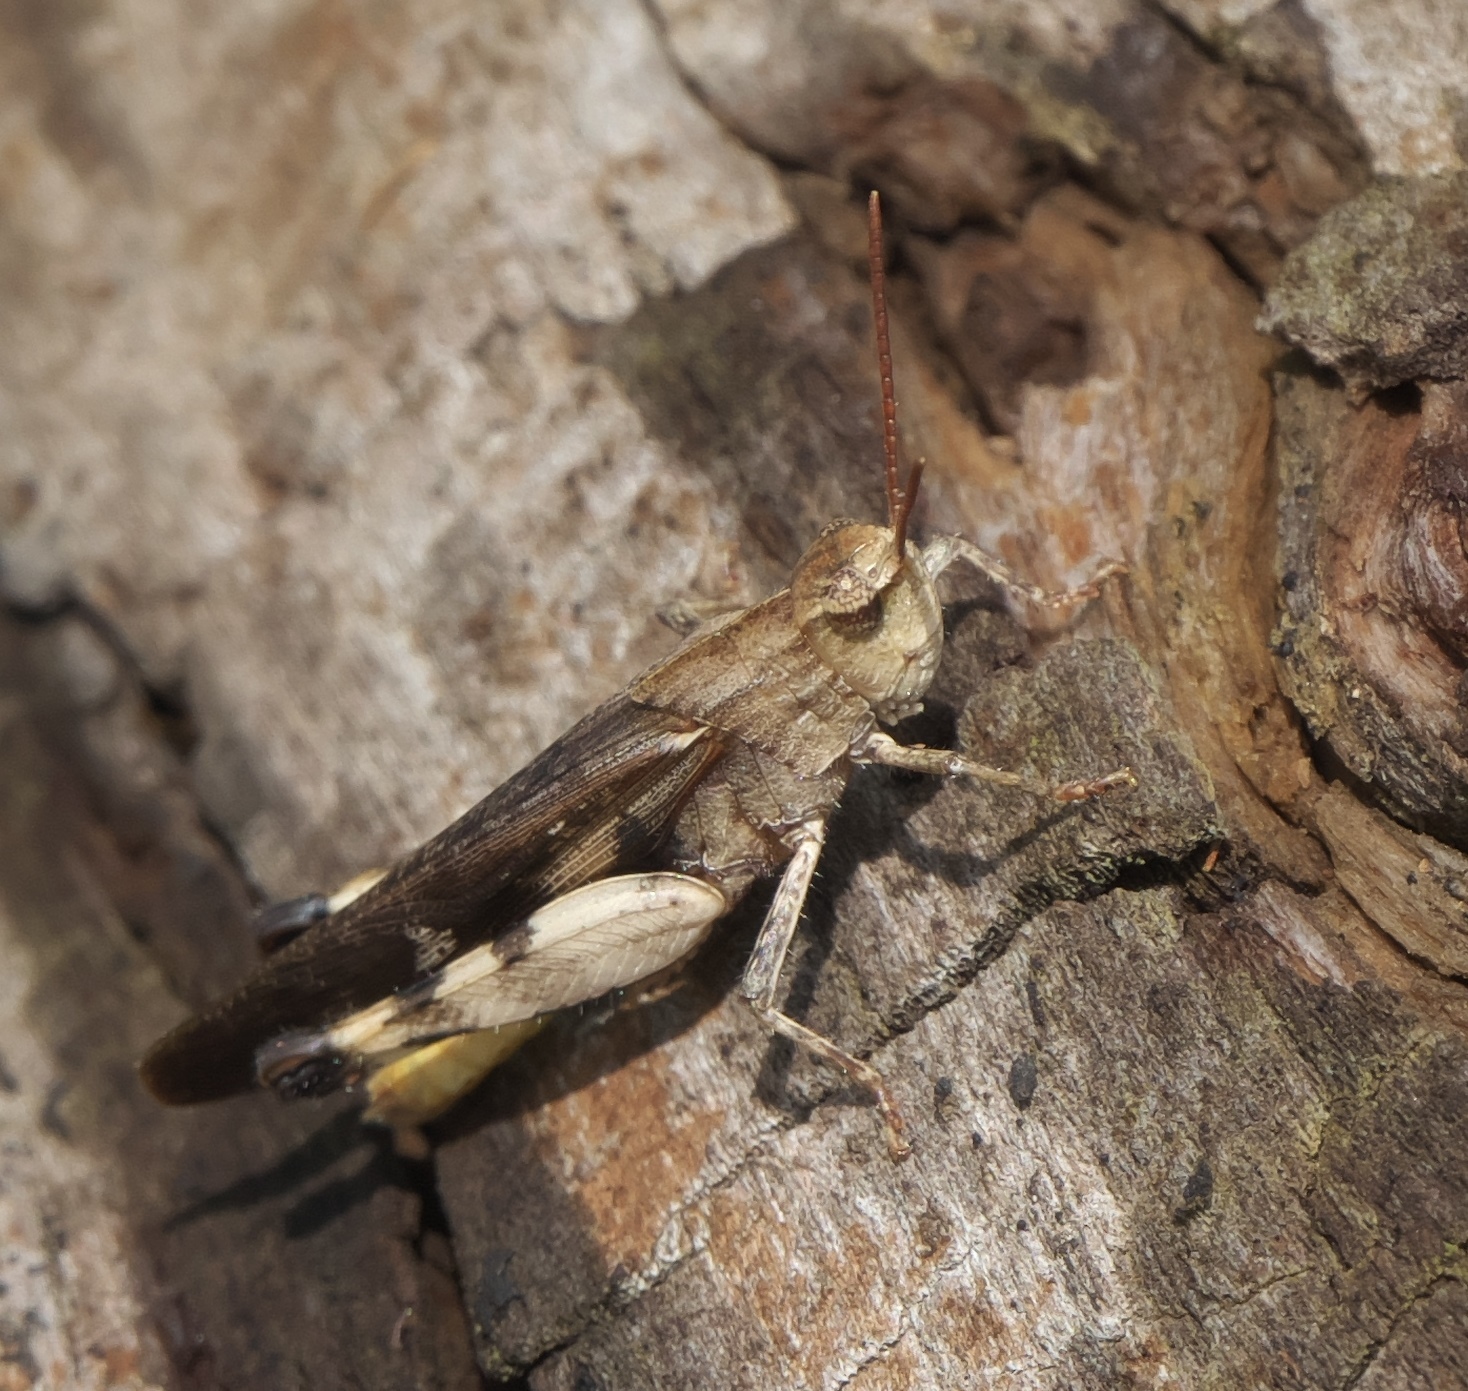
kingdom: Animalia
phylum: Arthropoda
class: Insecta
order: Orthoptera
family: Acrididae
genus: Chortophaga
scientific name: Chortophaga viridifasciata
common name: Green-striped grasshopper
